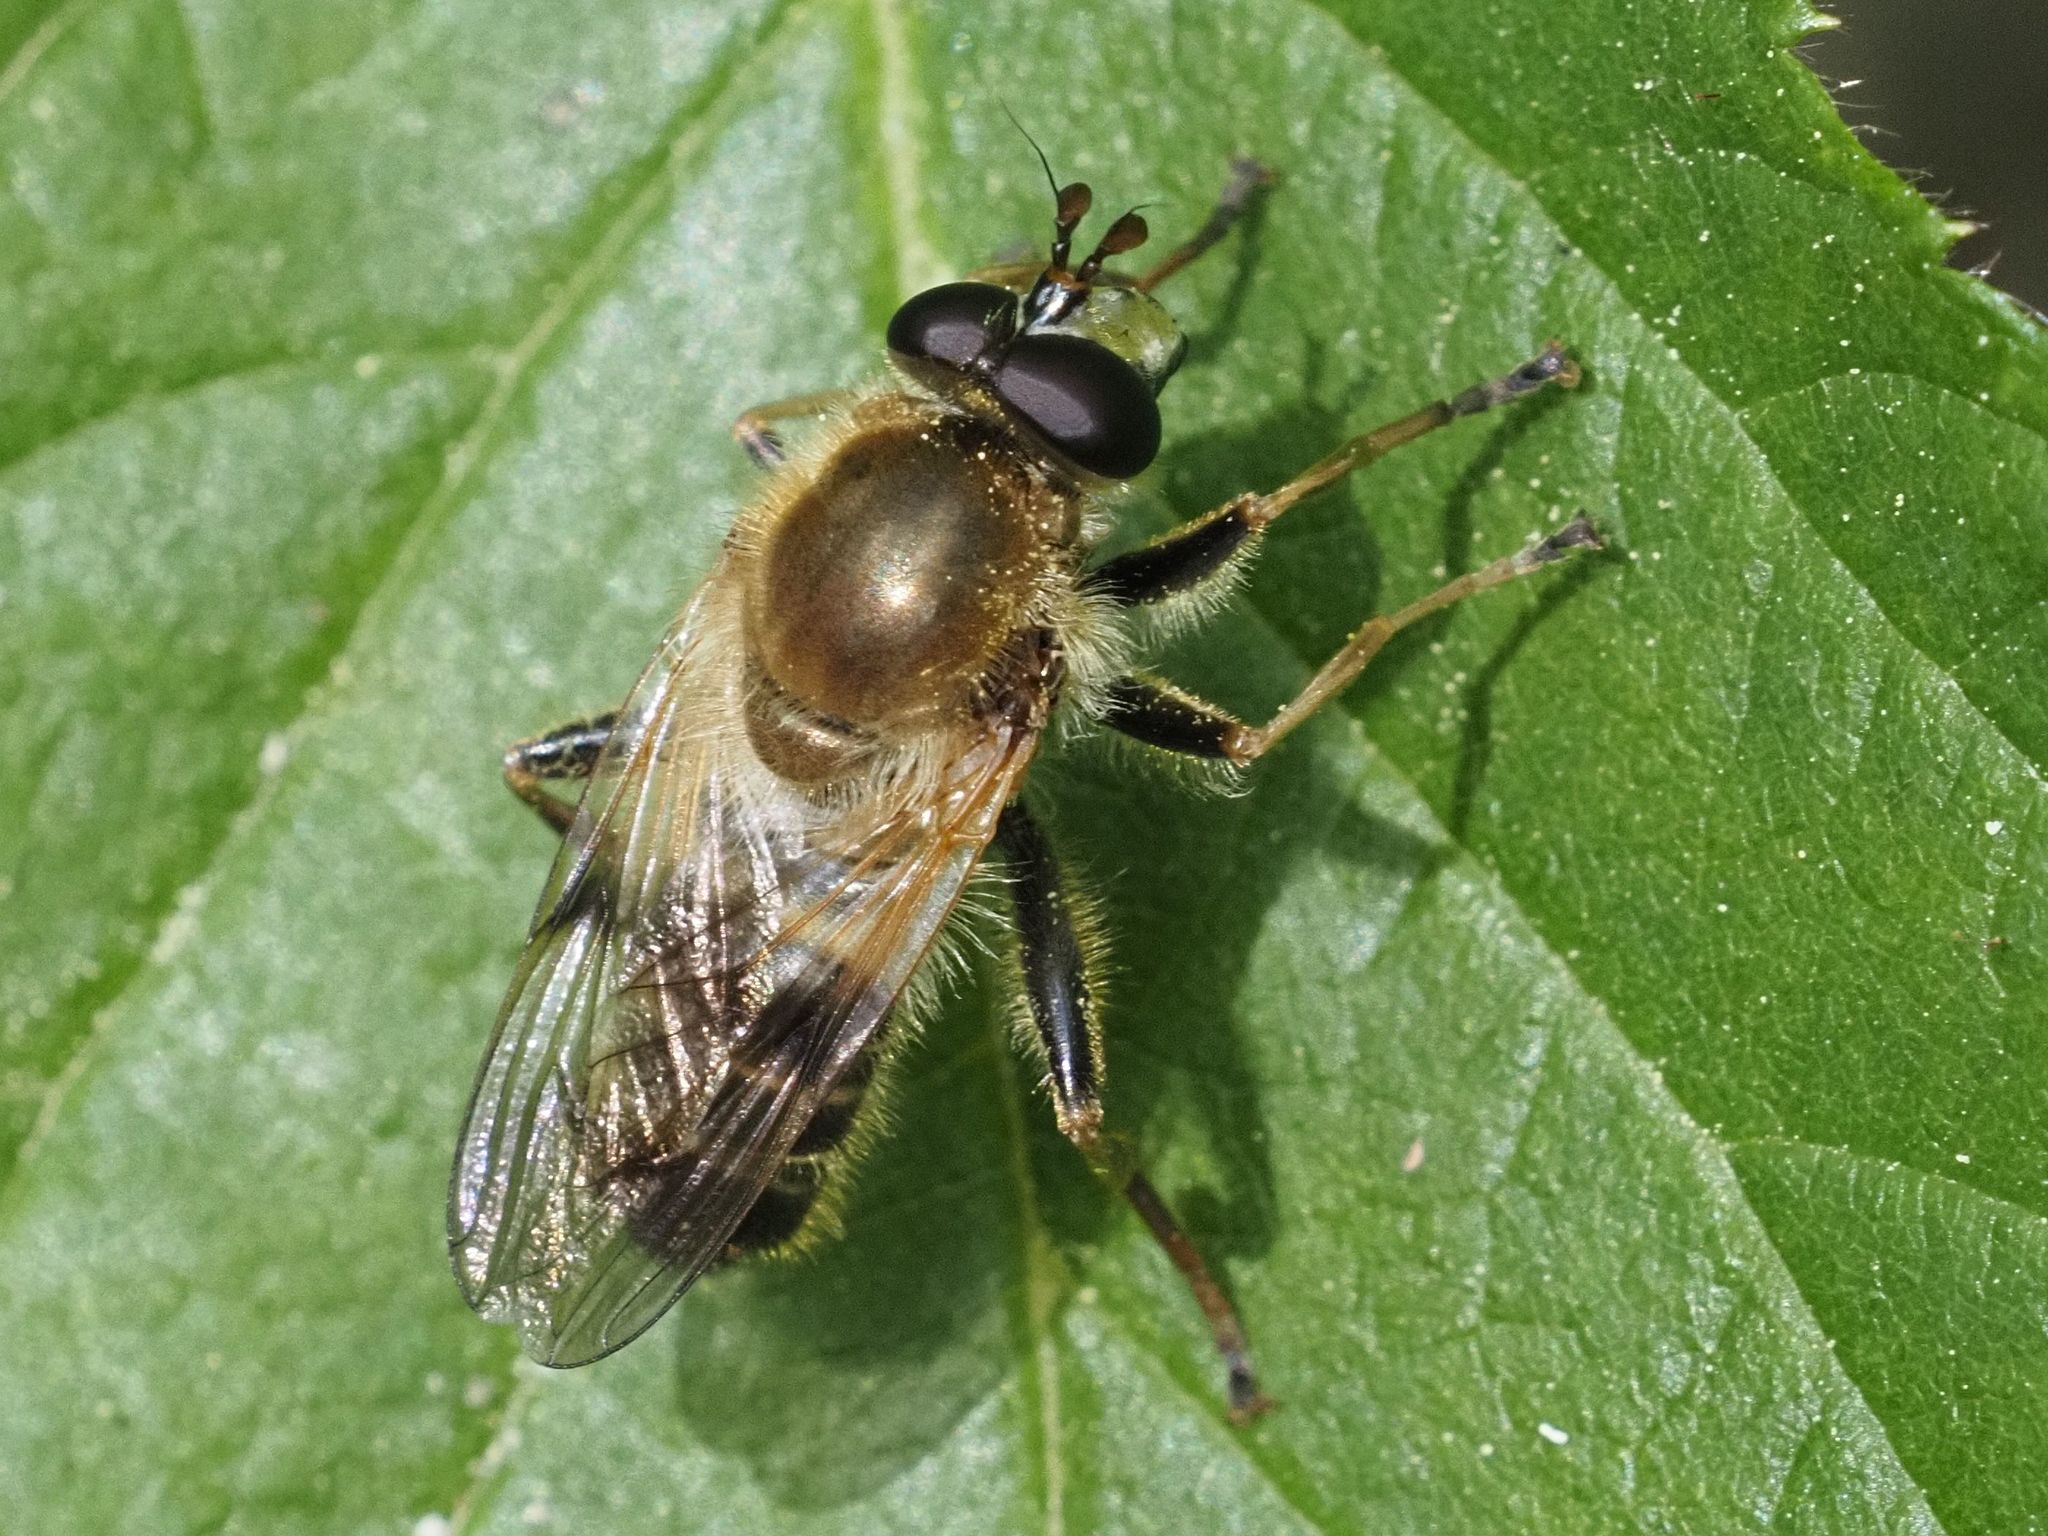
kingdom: Animalia
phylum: Arthropoda
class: Insecta
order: Diptera
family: Syrphidae
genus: Criorhina
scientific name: Criorhina asilica
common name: Pale-banded bear hoverfly
